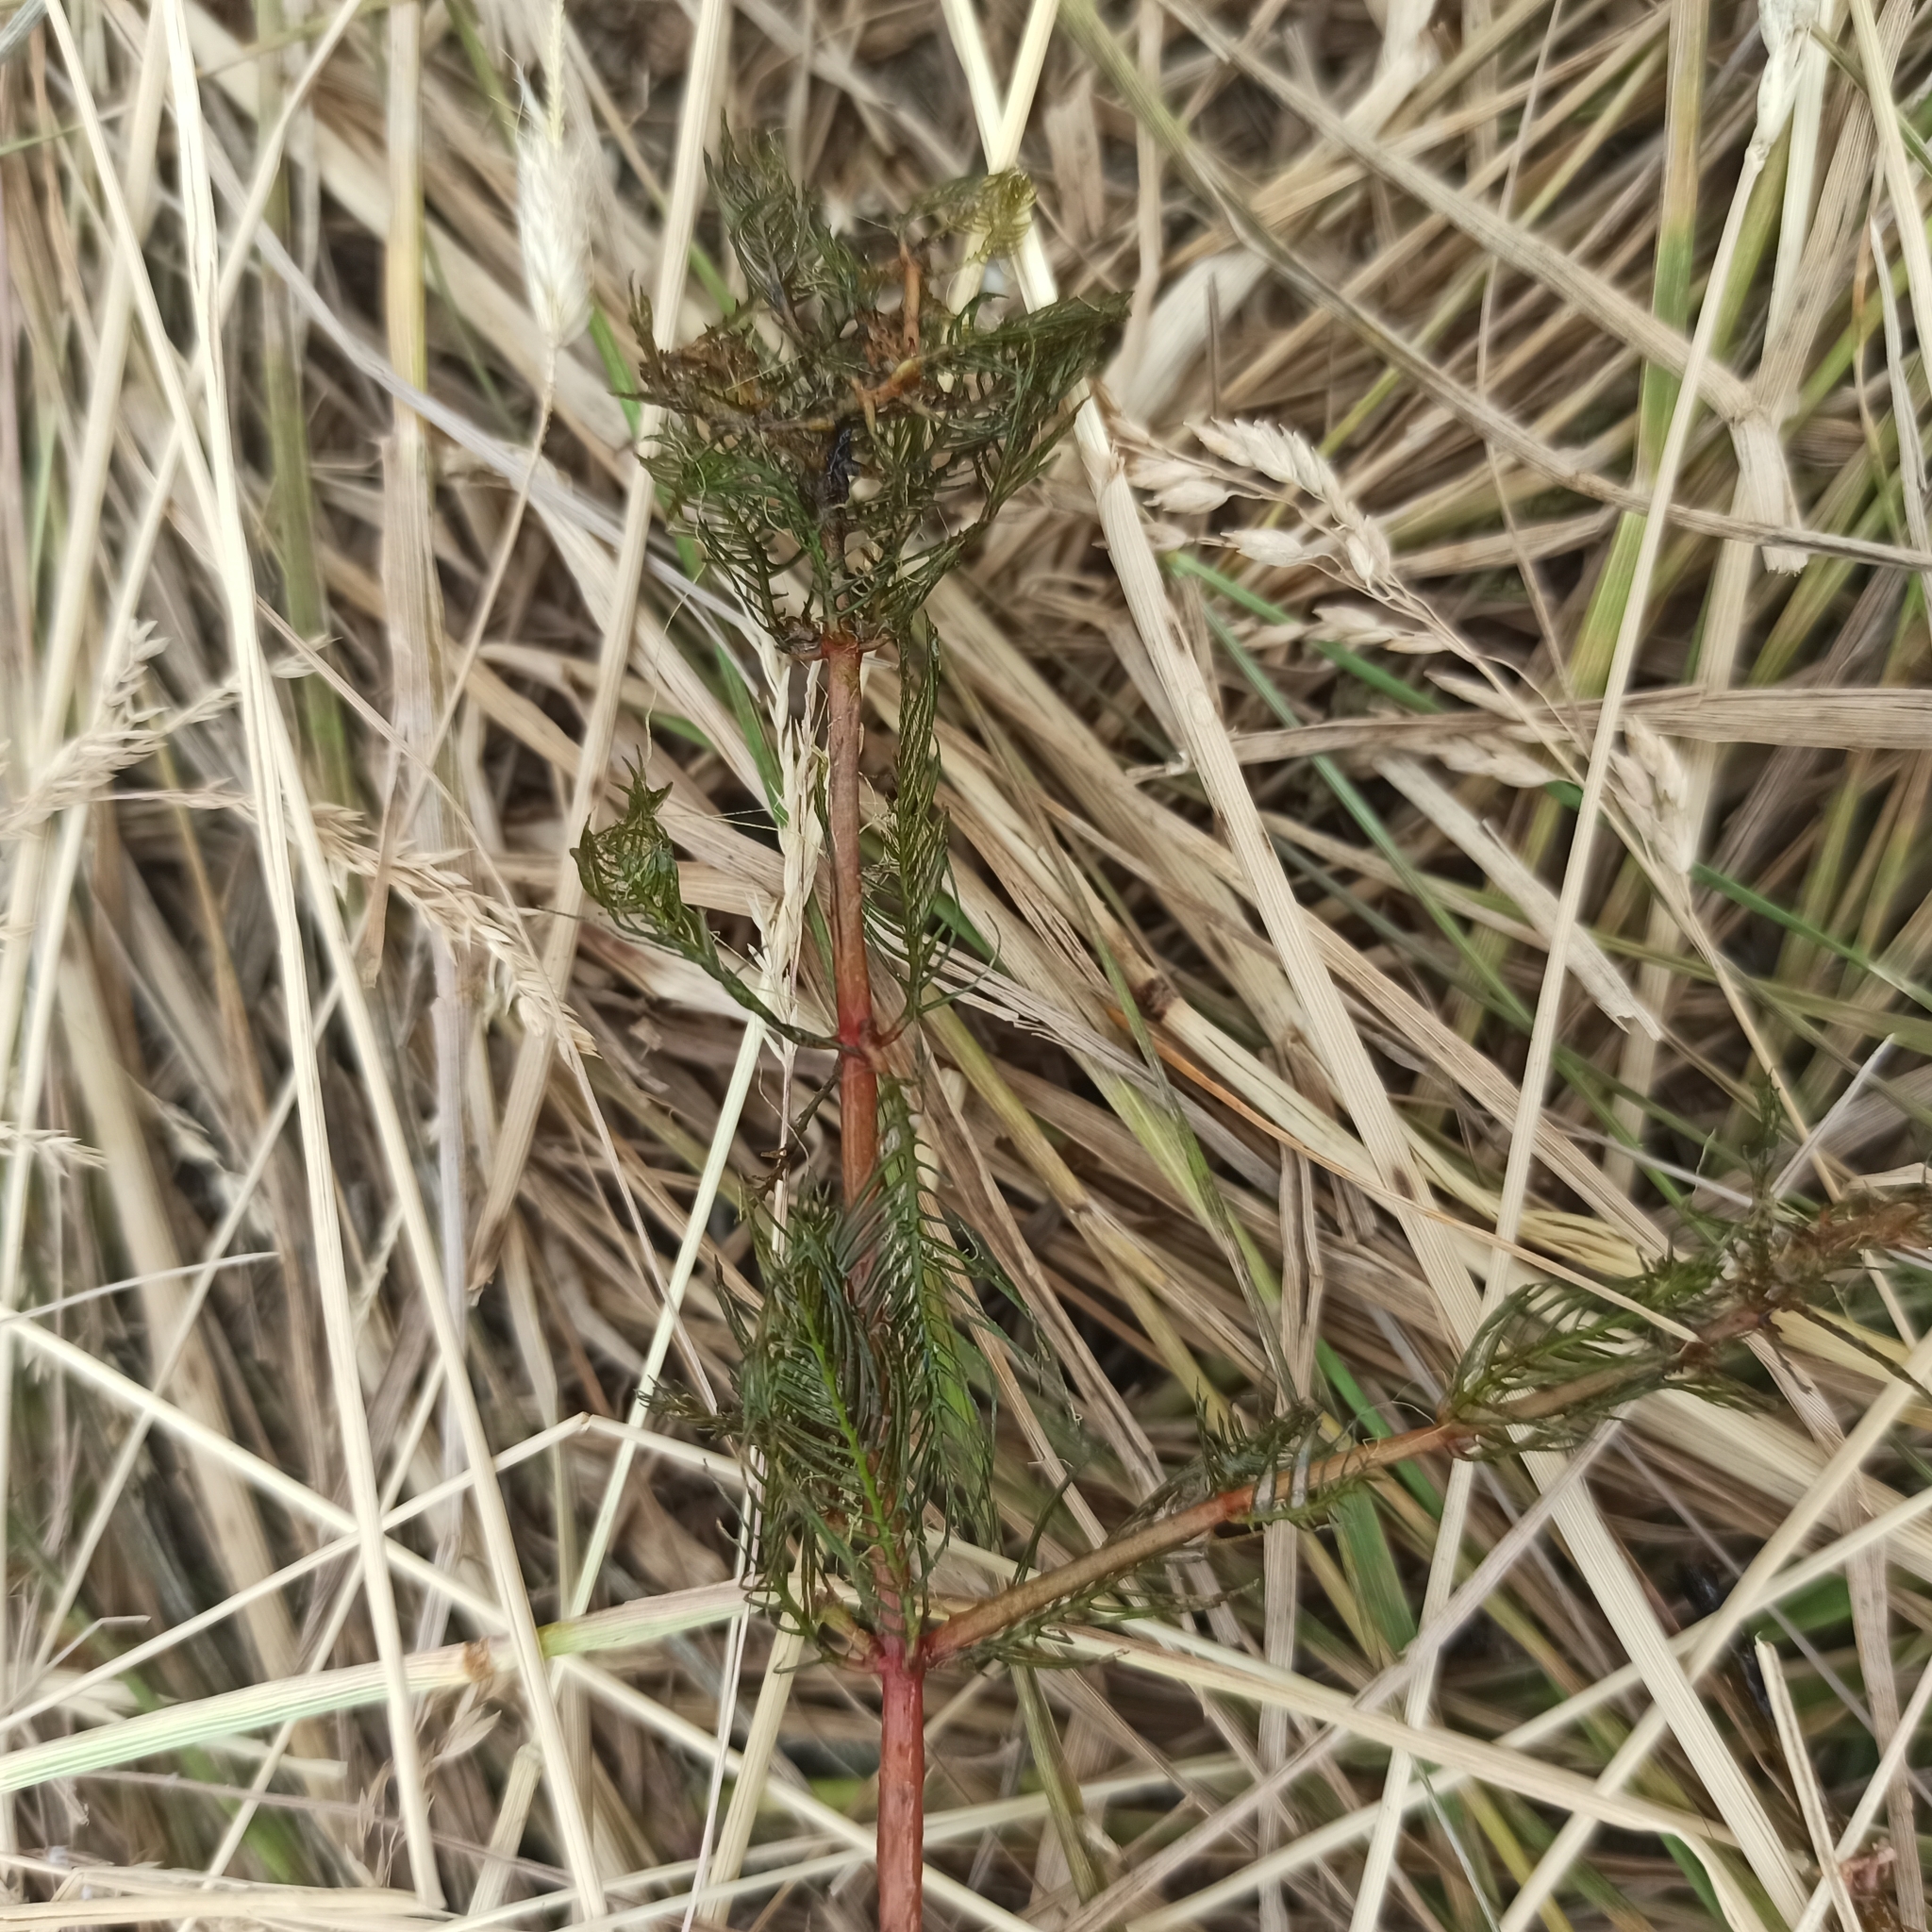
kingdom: Plantae
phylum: Tracheophyta
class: Magnoliopsida
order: Saxifragales
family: Haloragaceae
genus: Myriophyllum
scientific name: Myriophyllum spicatum
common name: Spiked water-milfoil
